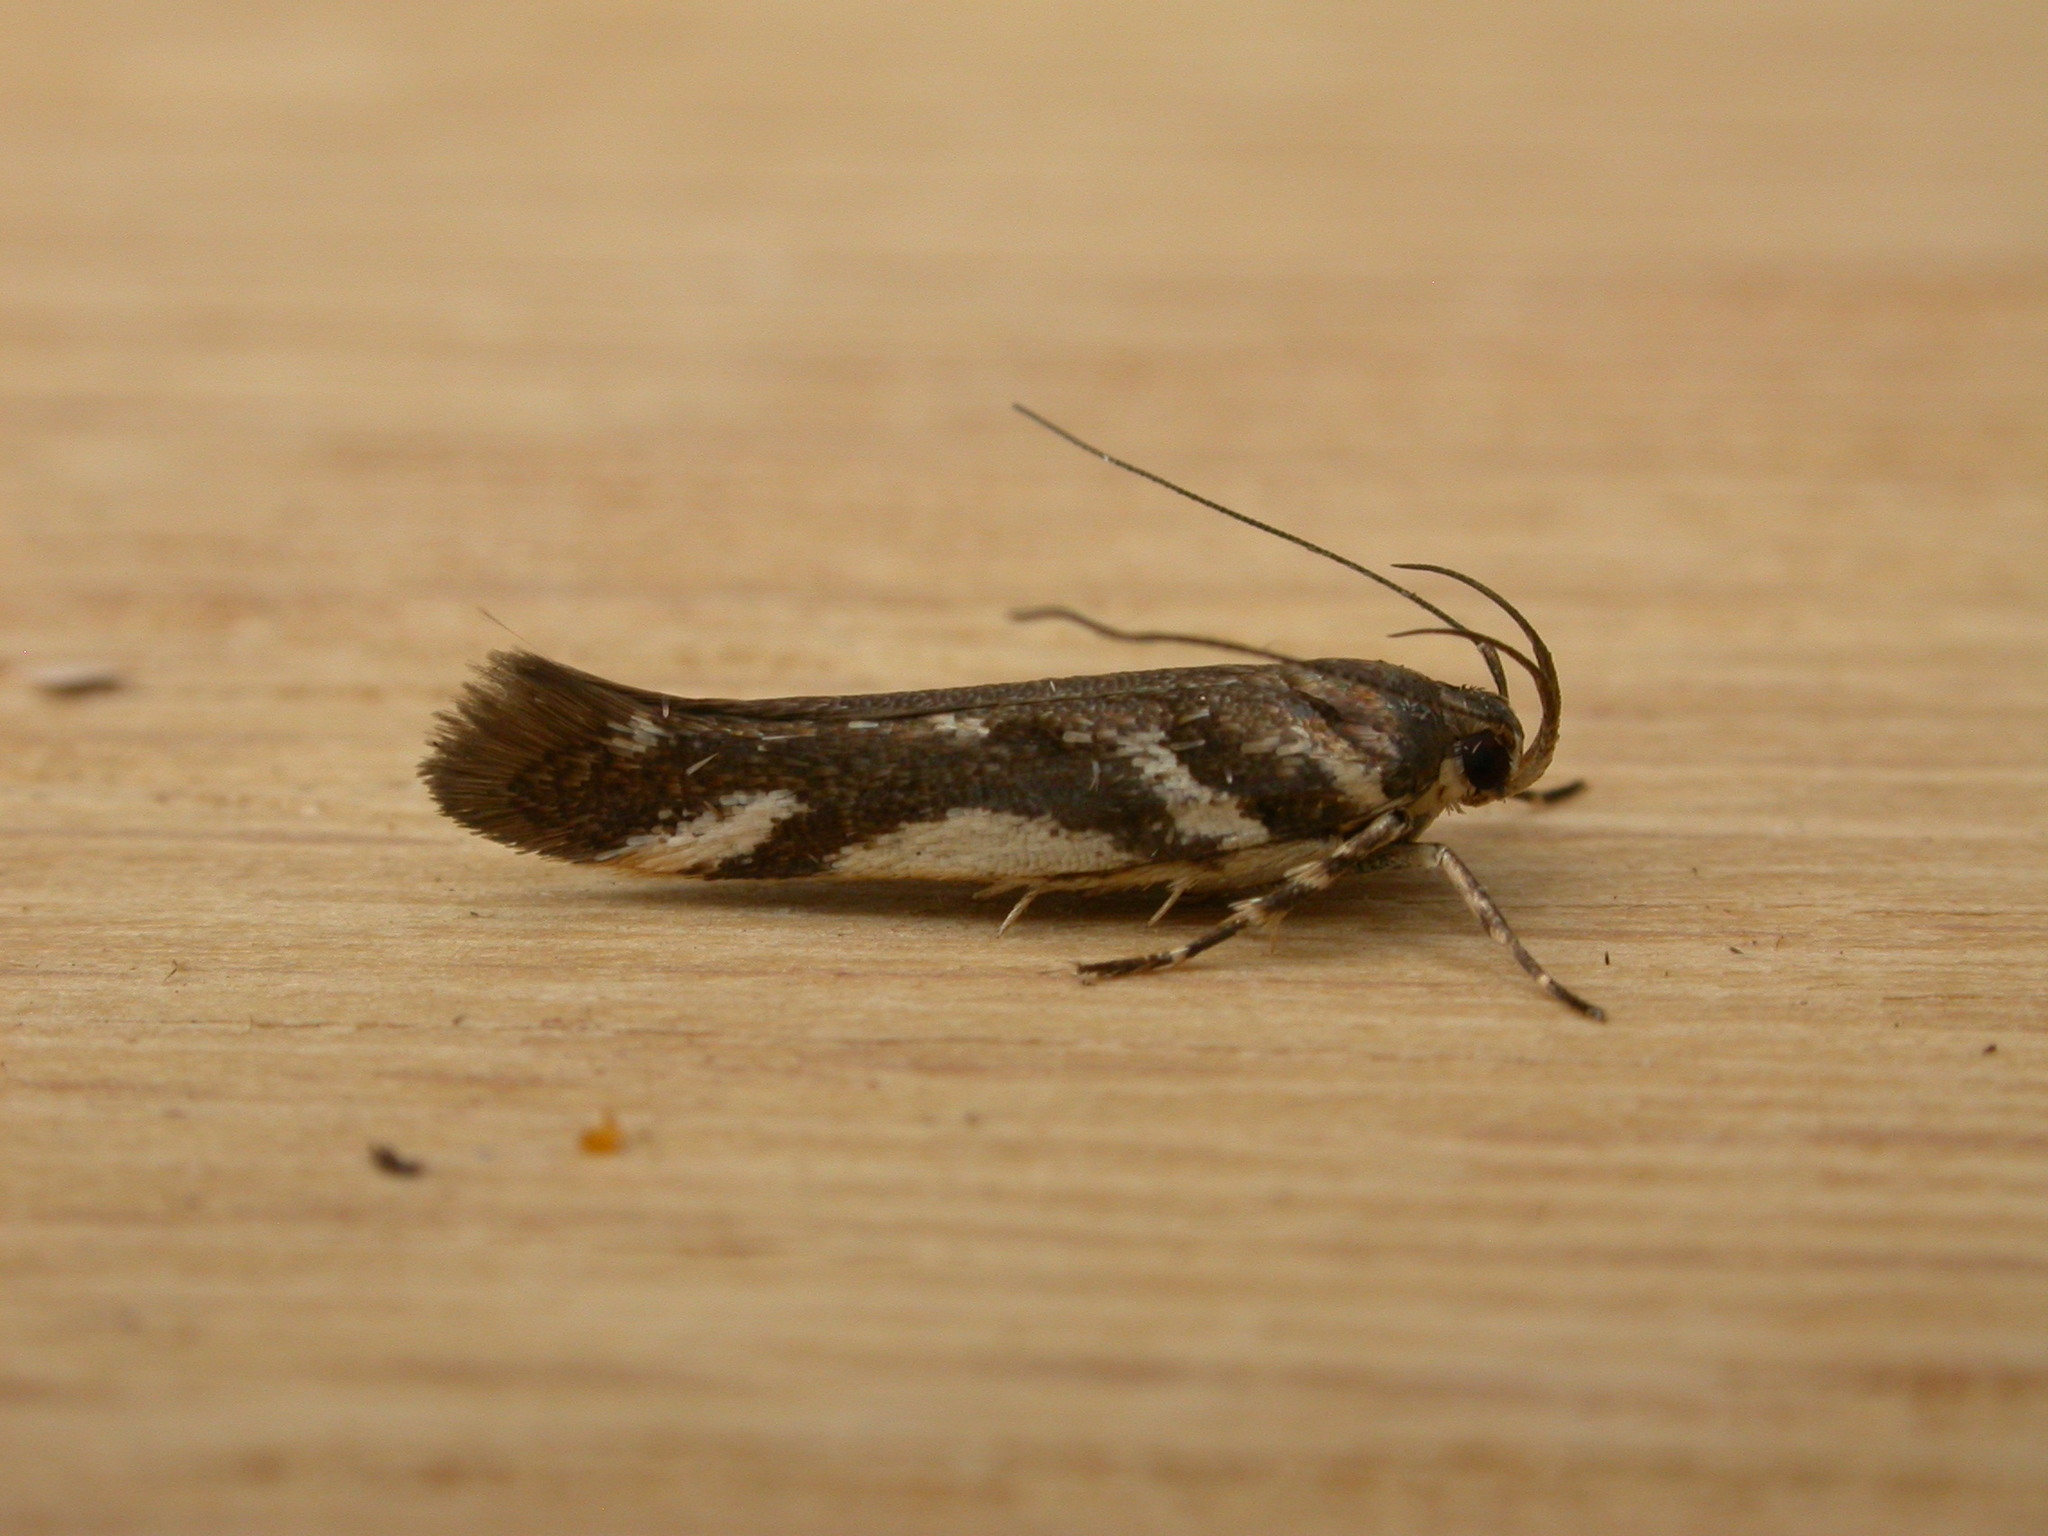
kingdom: Animalia
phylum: Arthropoda
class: Insecta
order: Lepidoptera
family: Cosmopterigidae
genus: Macrobathra
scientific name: Macrobathra heminephela
